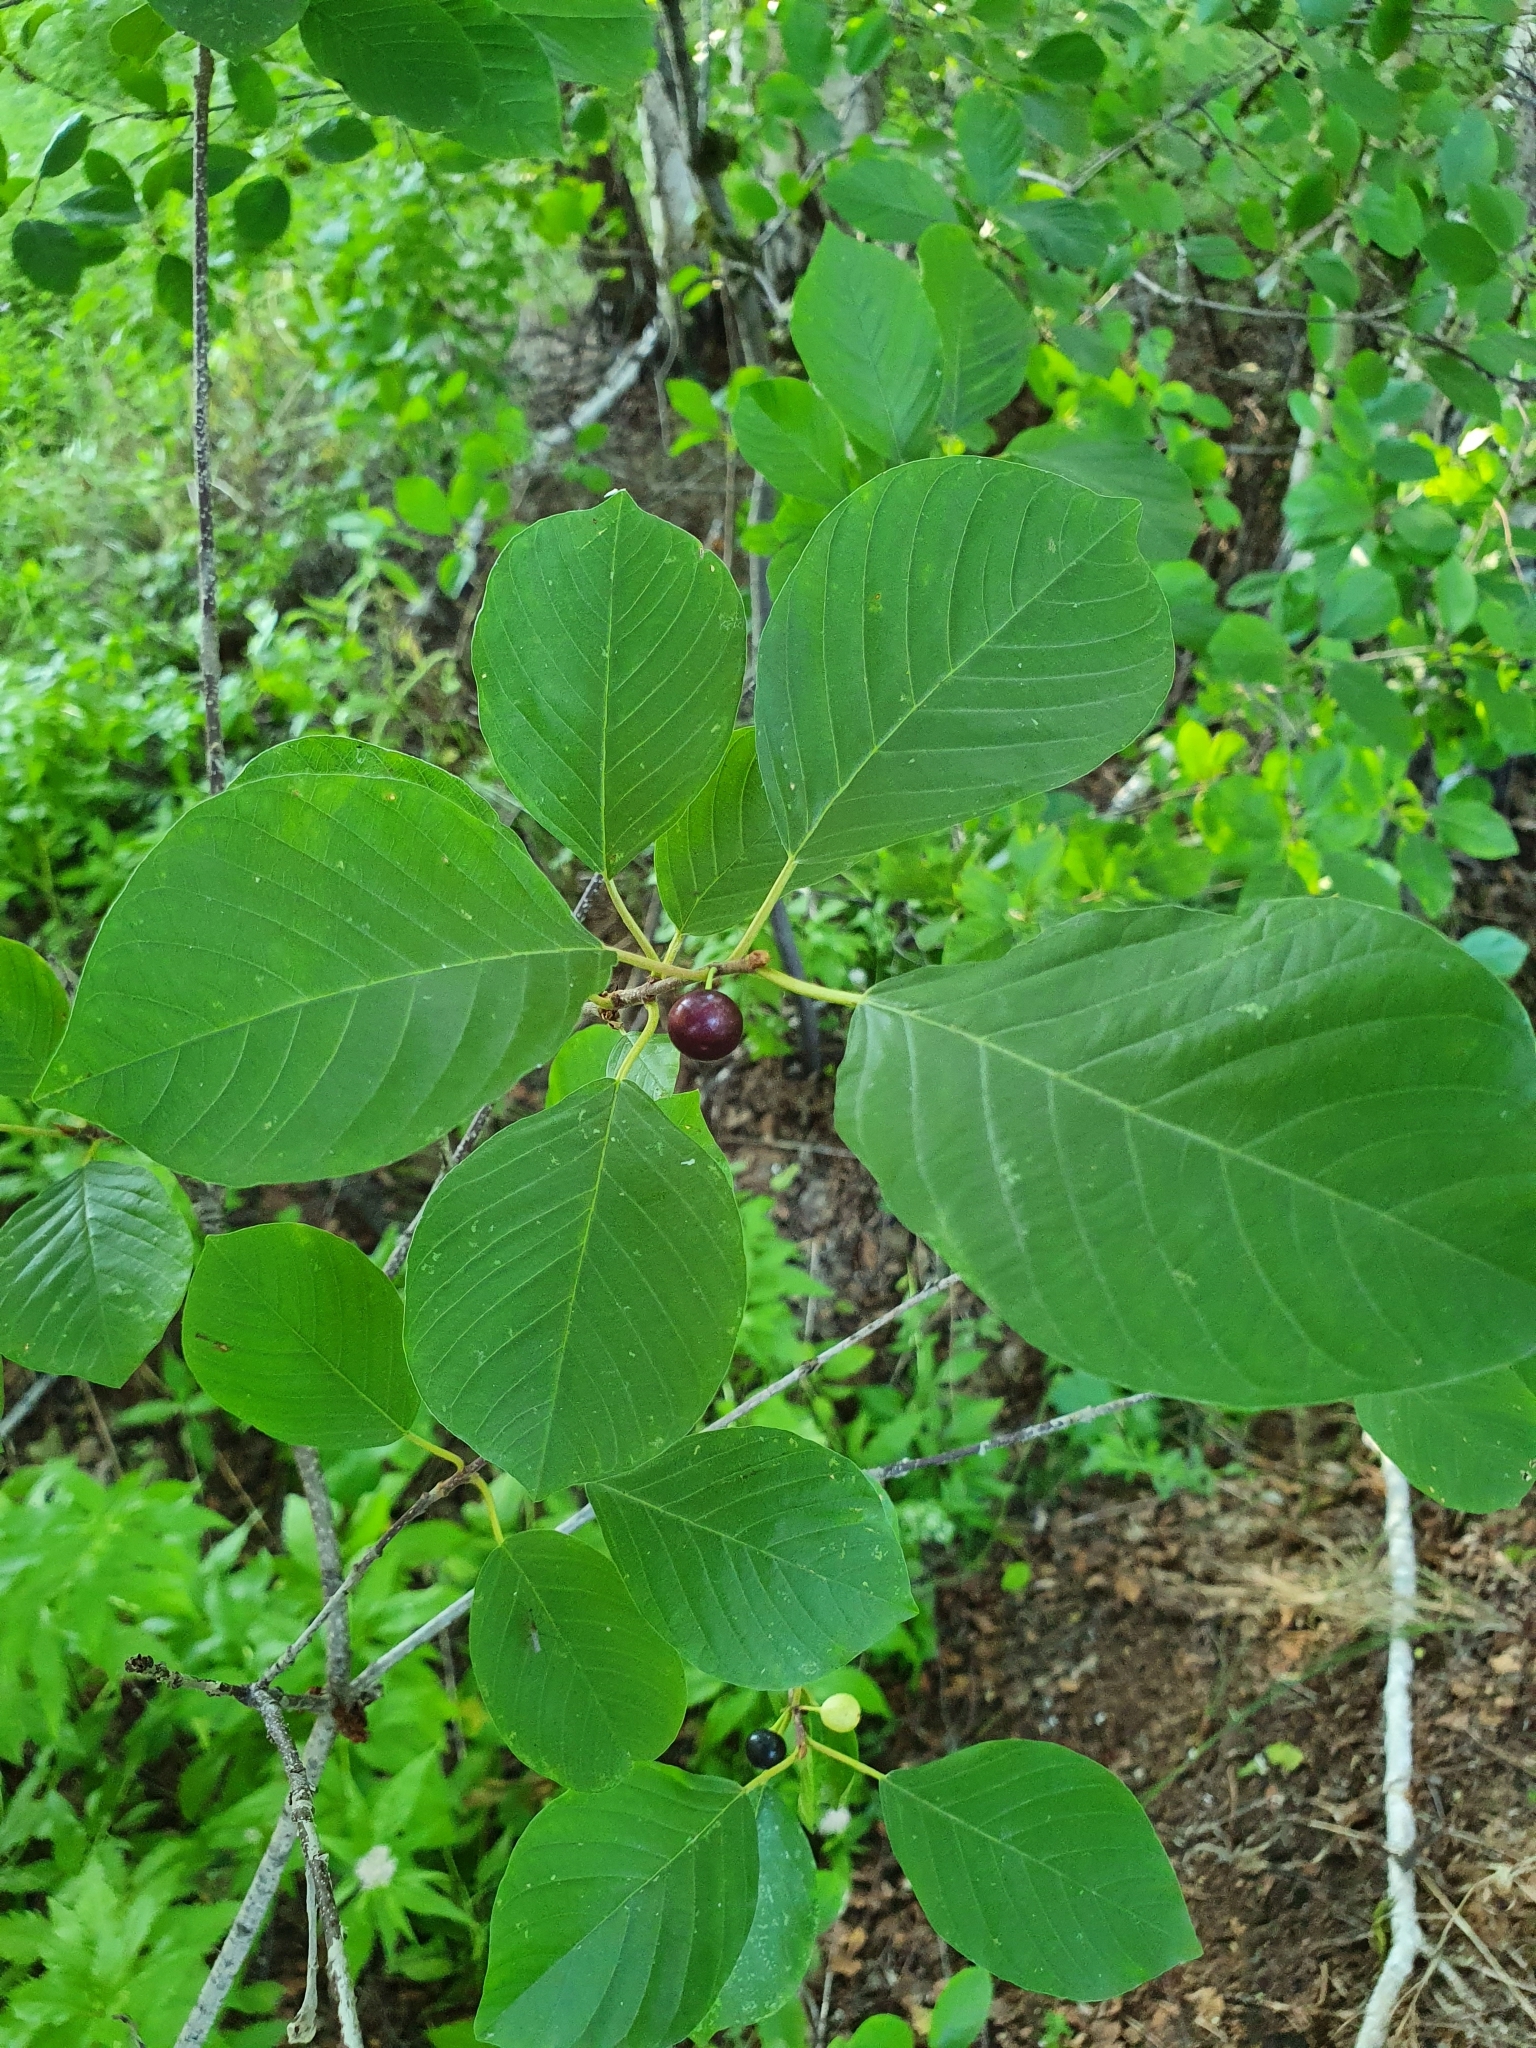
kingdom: Plantae
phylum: Tracheophyta
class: Magnoliopsida
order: Rosales
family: Rhamnaceae
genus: Frangula
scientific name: Frangula alnus
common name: Alder buckthorn
